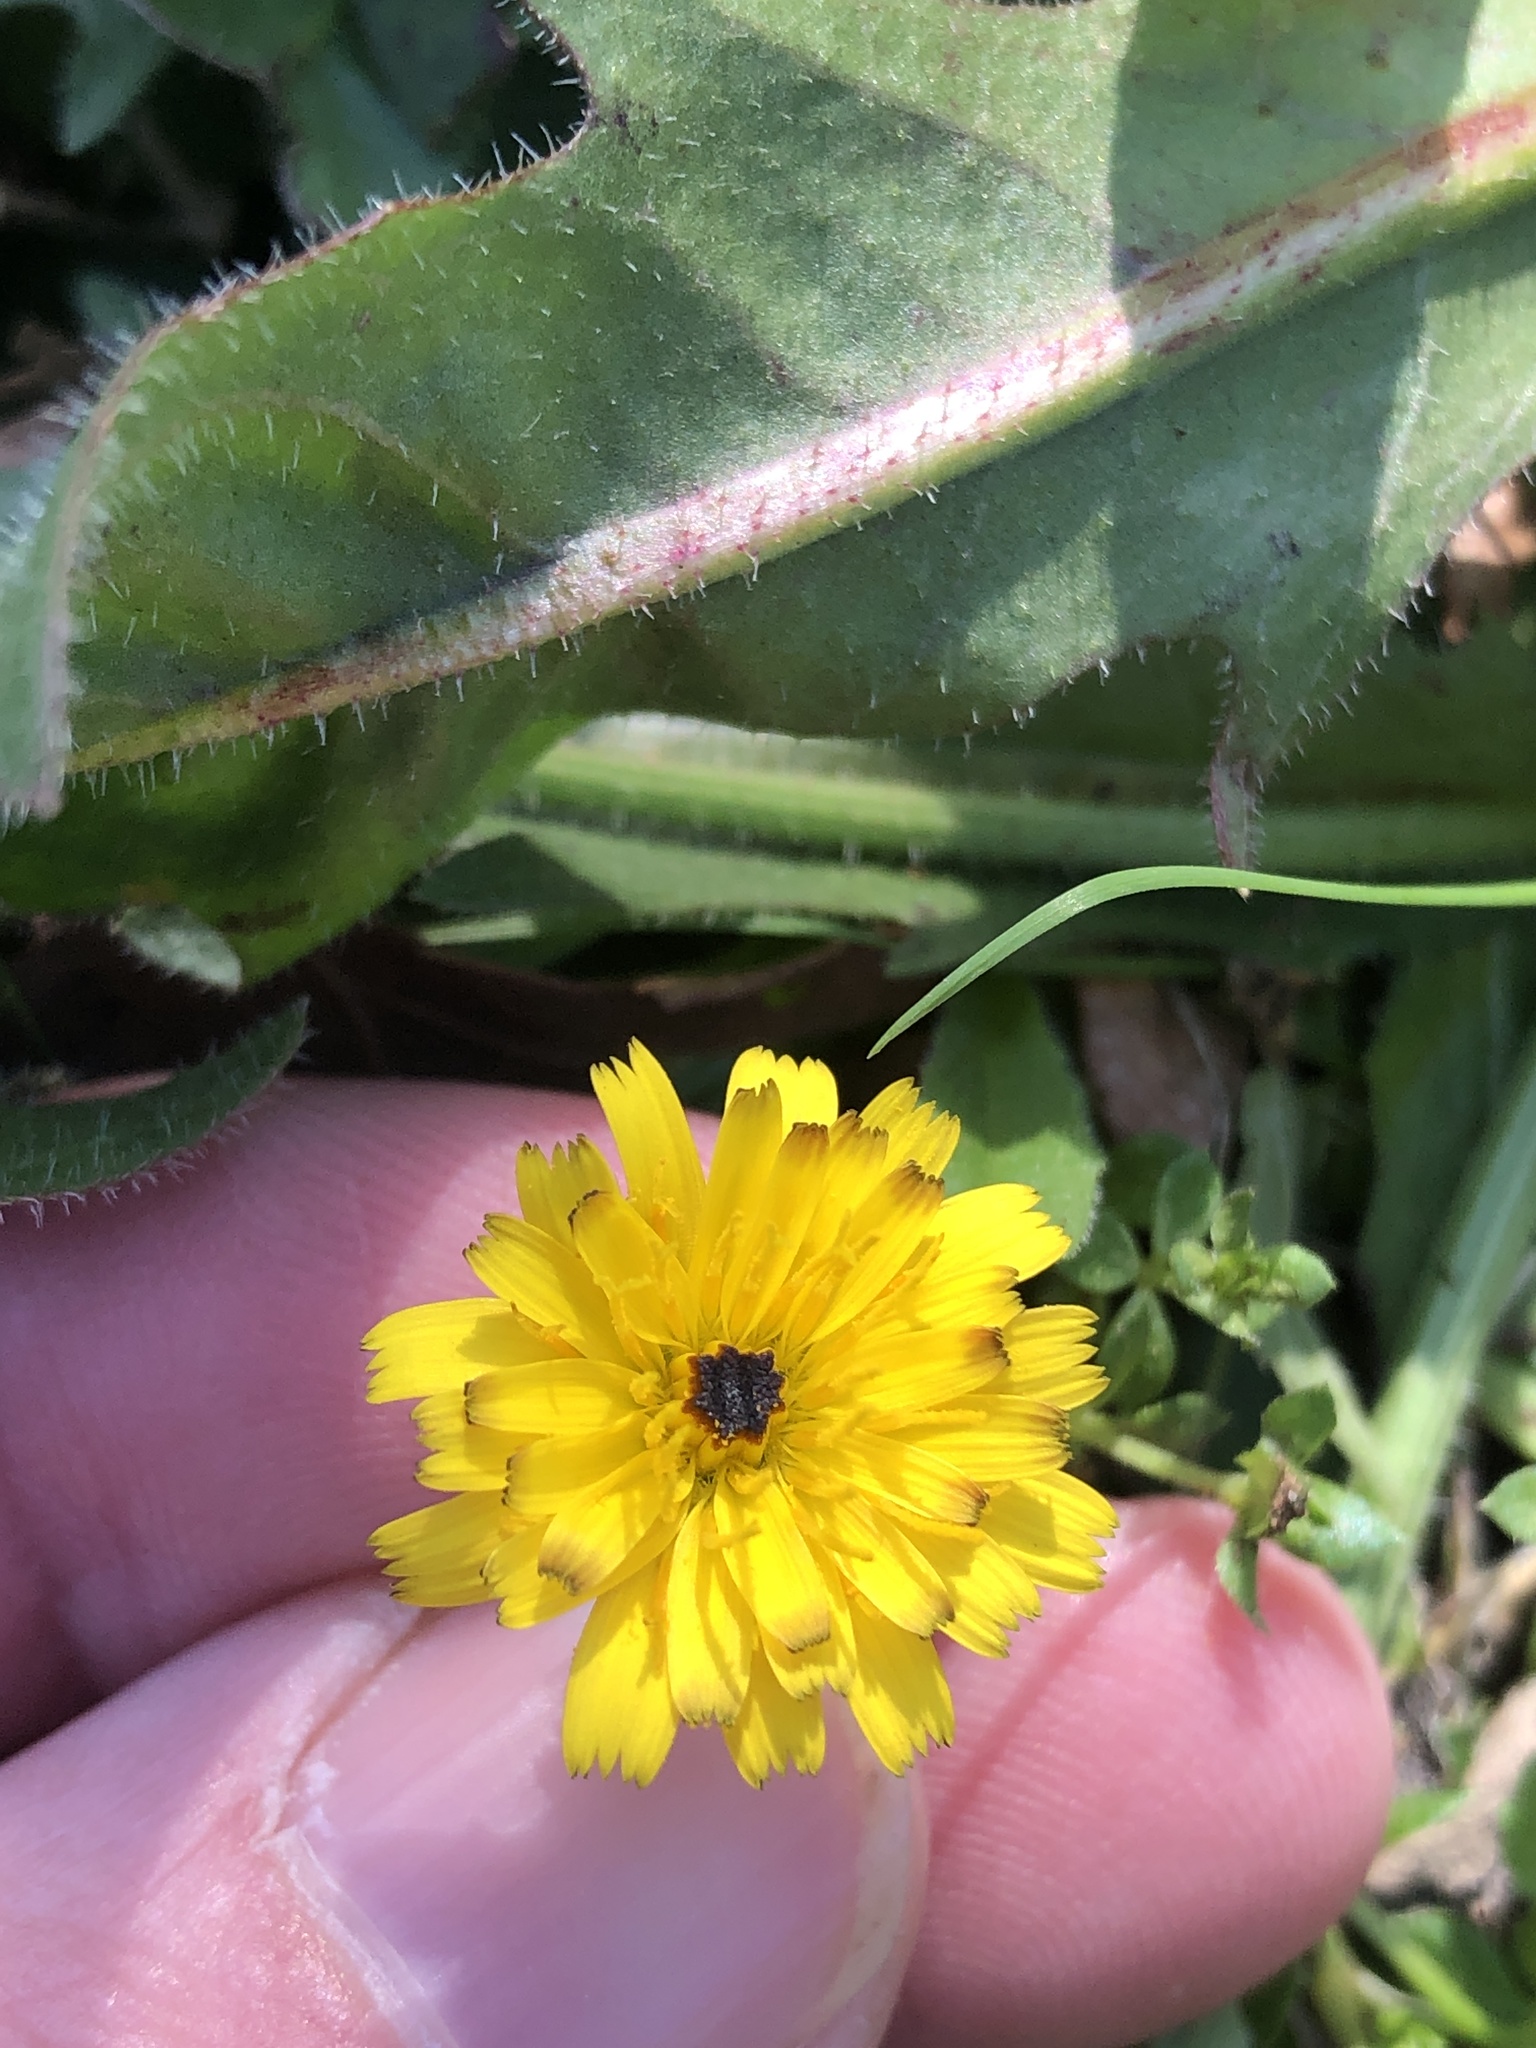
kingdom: Plantae
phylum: Tracheophyta
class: Magnoliopsida
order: Asterales
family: Asteraceae
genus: Hedypnois
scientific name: Hedypnois rhagadioloides
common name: Cretan weed
